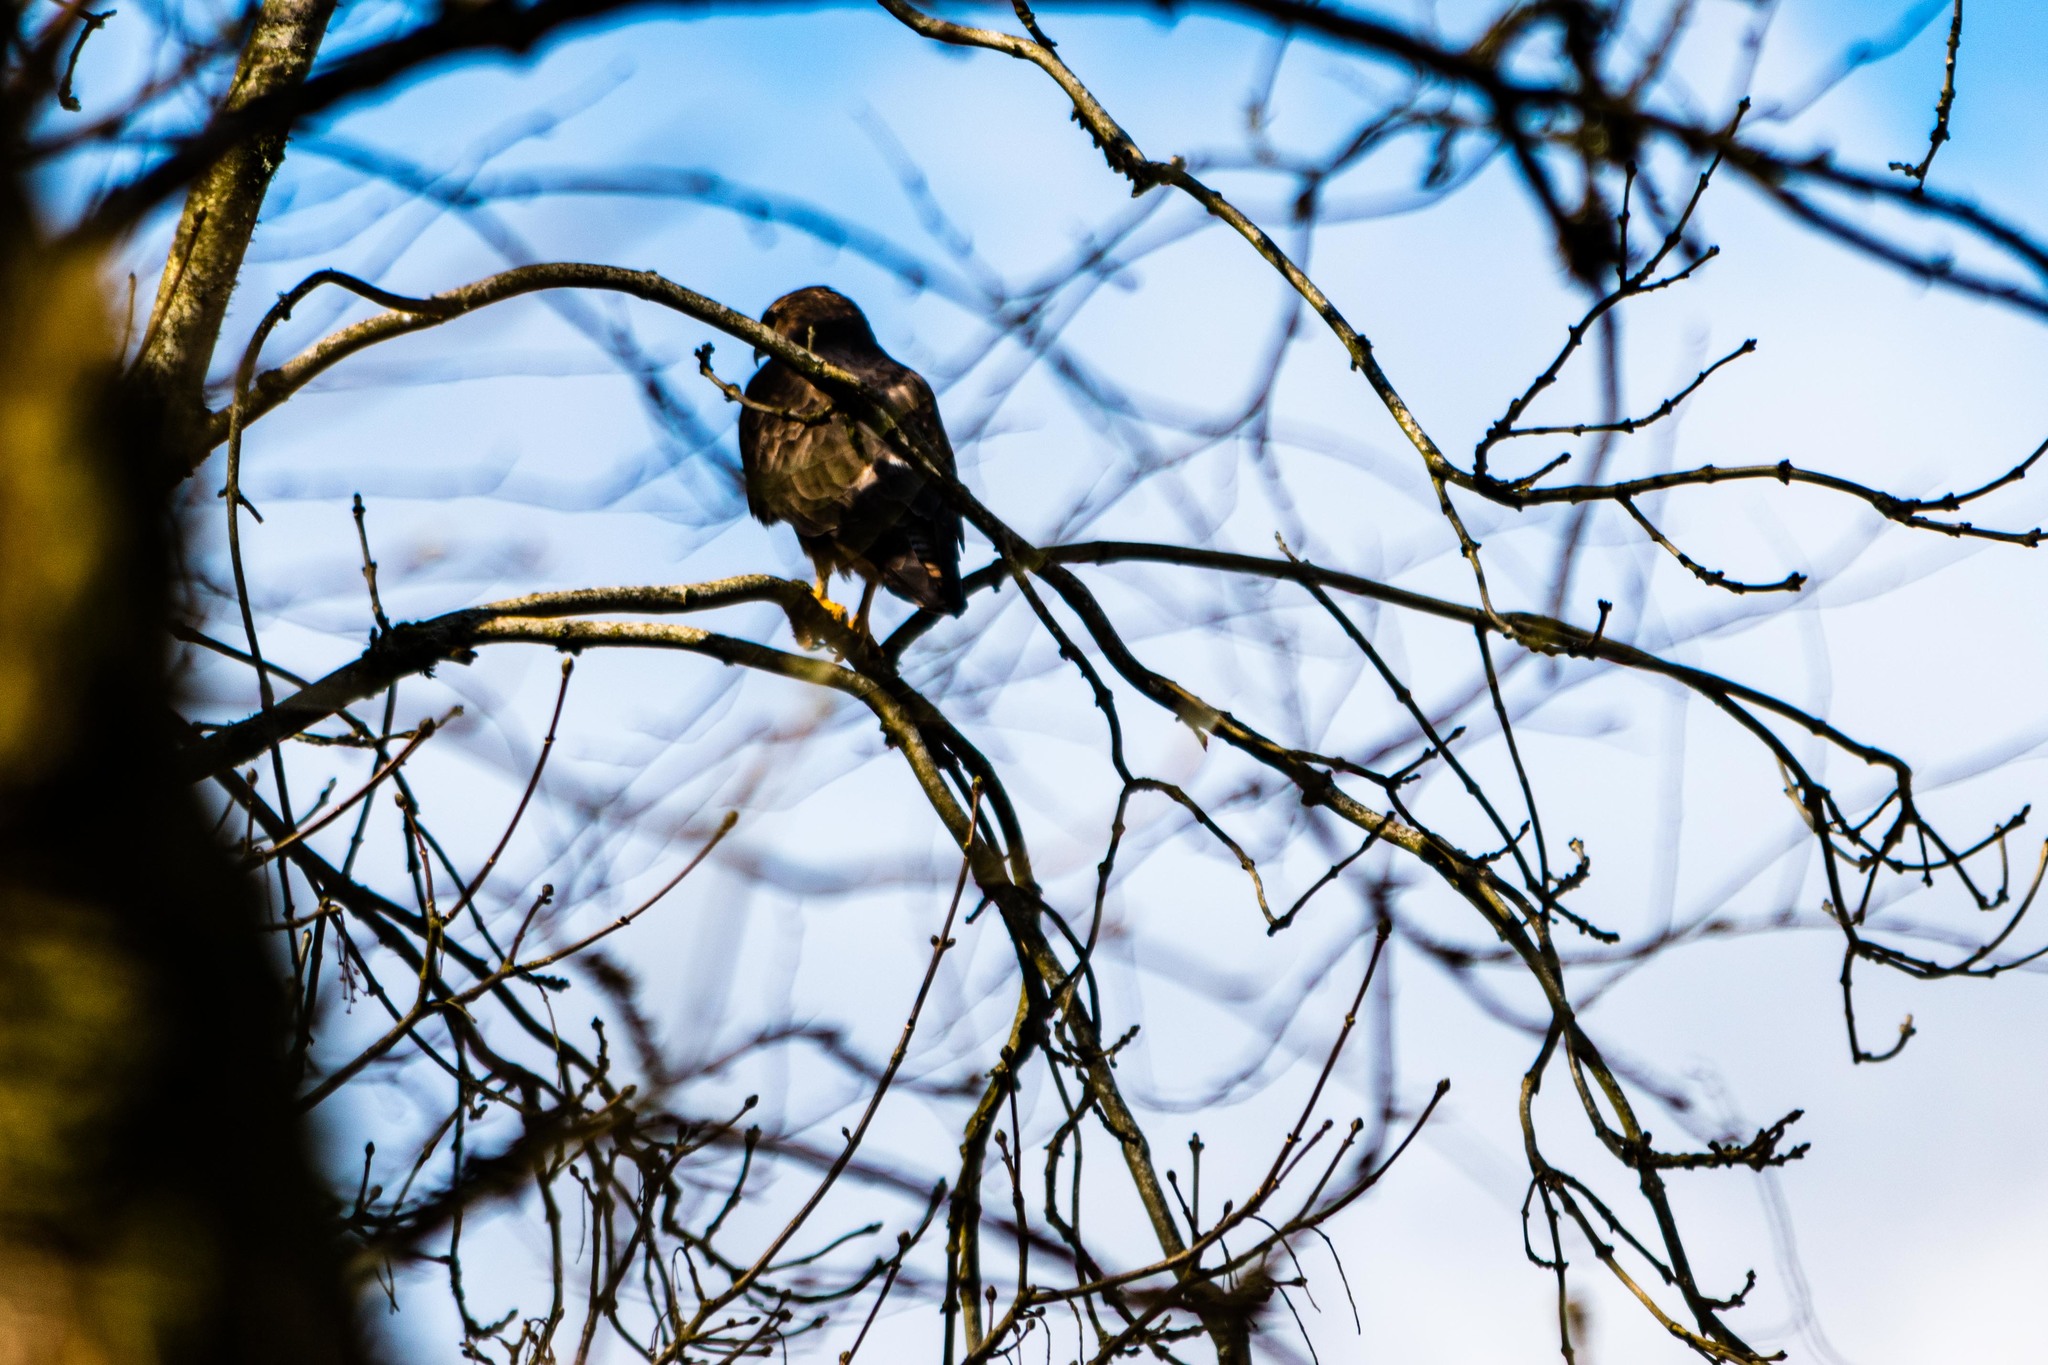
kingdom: Animalia
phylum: Chordata
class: Aves
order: Accipitriformes
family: Accipitridae
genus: Buteo
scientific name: Buteo buteo
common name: Common buzzard
